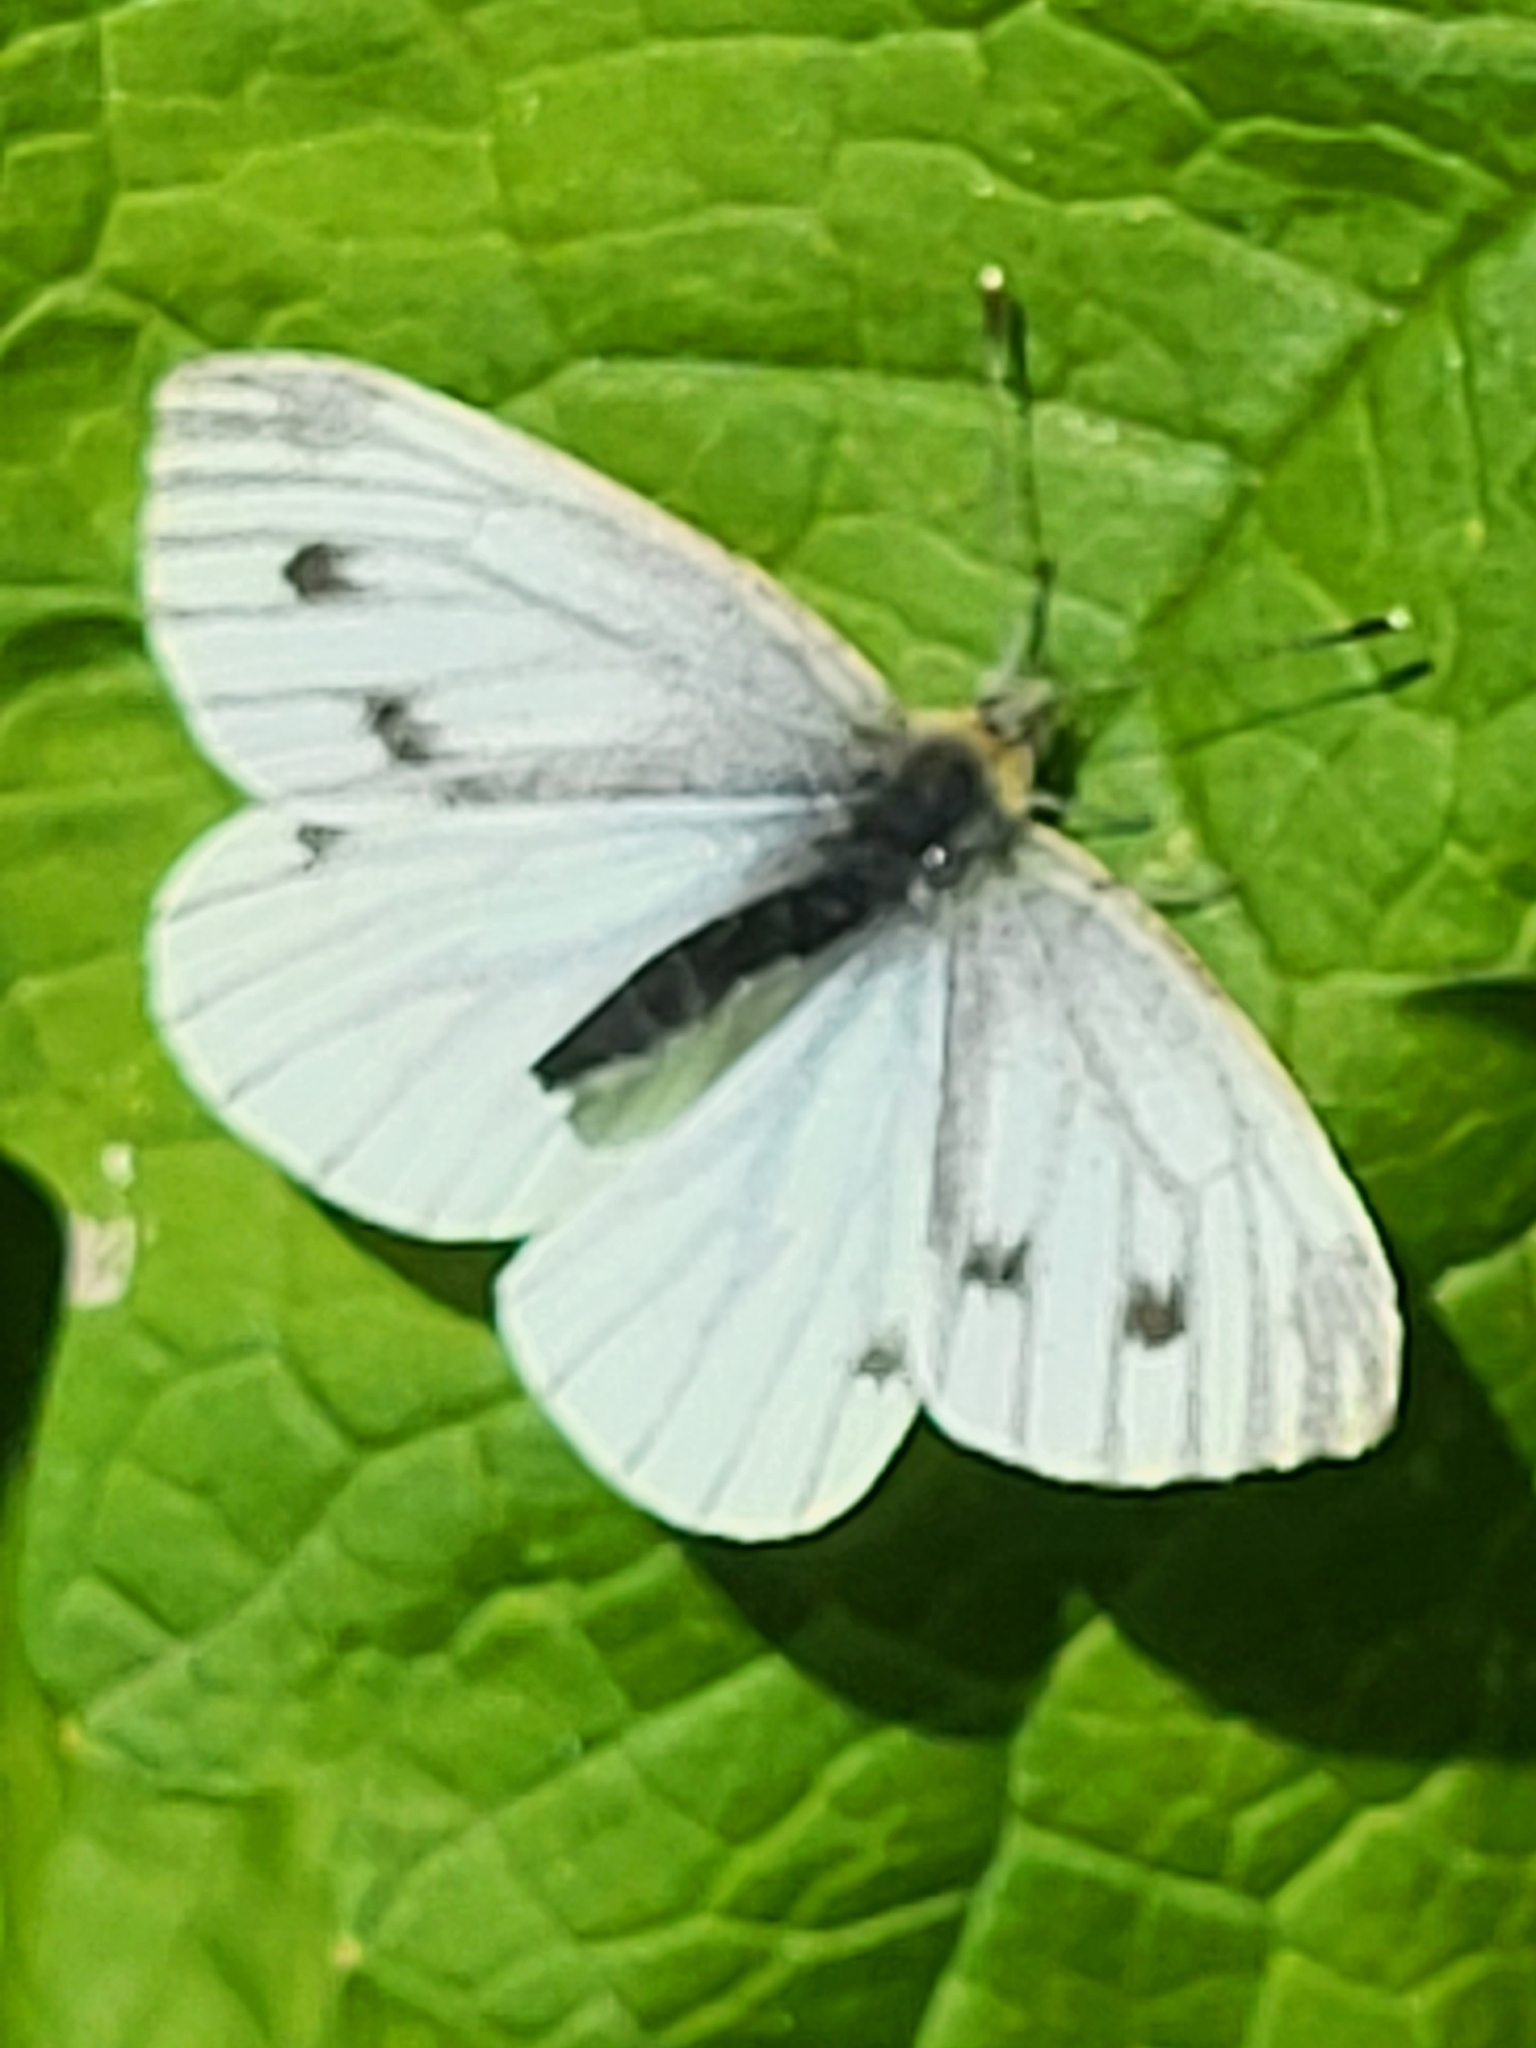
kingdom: Animalia
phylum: Arthropoda
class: Insecta
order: Lepidoptera
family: Pieridae
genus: Pieris
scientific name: Pieris napi
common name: Green-veined white
